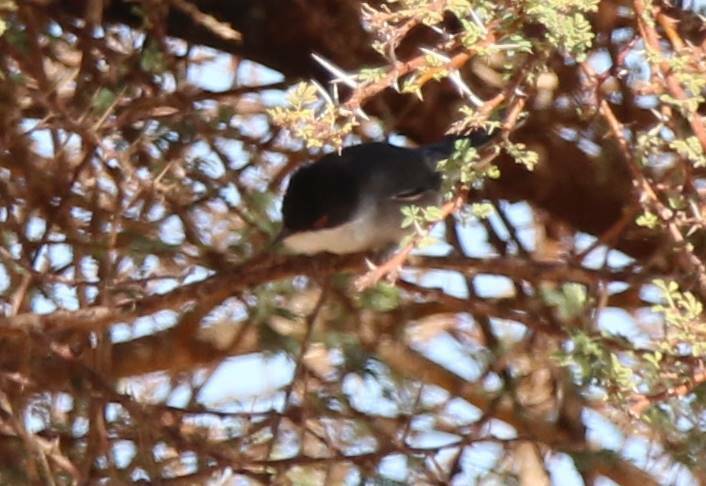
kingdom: Animalia
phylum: Chordata
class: Aves
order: Passeriformes
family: Sylviidae
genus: Curruca
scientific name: Curruca melanocephala
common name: Sardinian warbler
